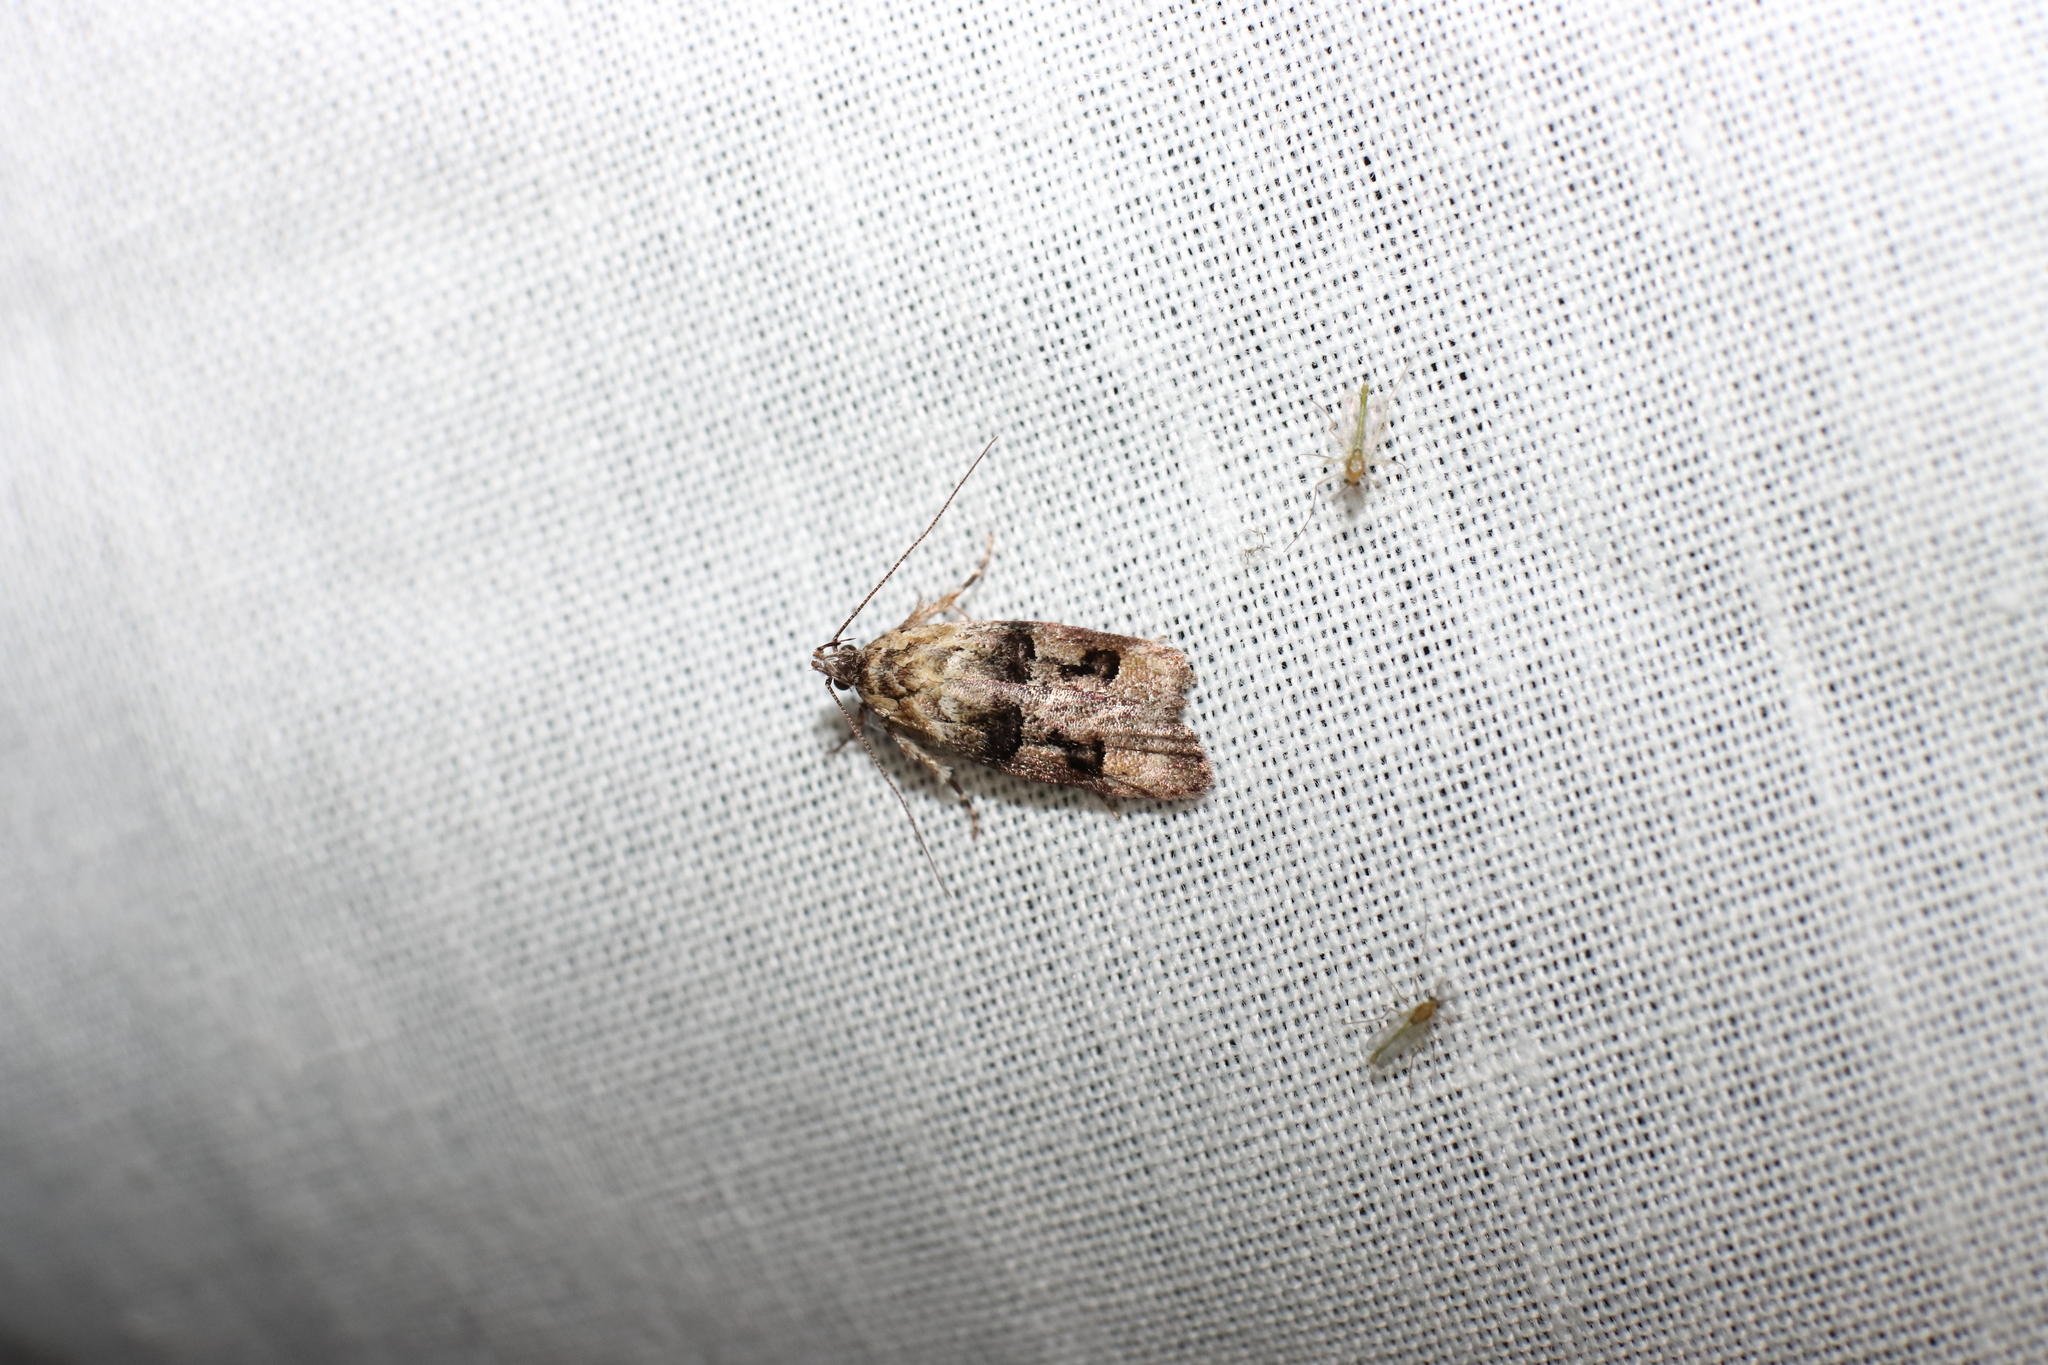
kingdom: Animalia
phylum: Arthropoda
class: Insecta
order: Lepidoptera
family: Oecophoridae
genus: Izatha
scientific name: Izatha metadelta
